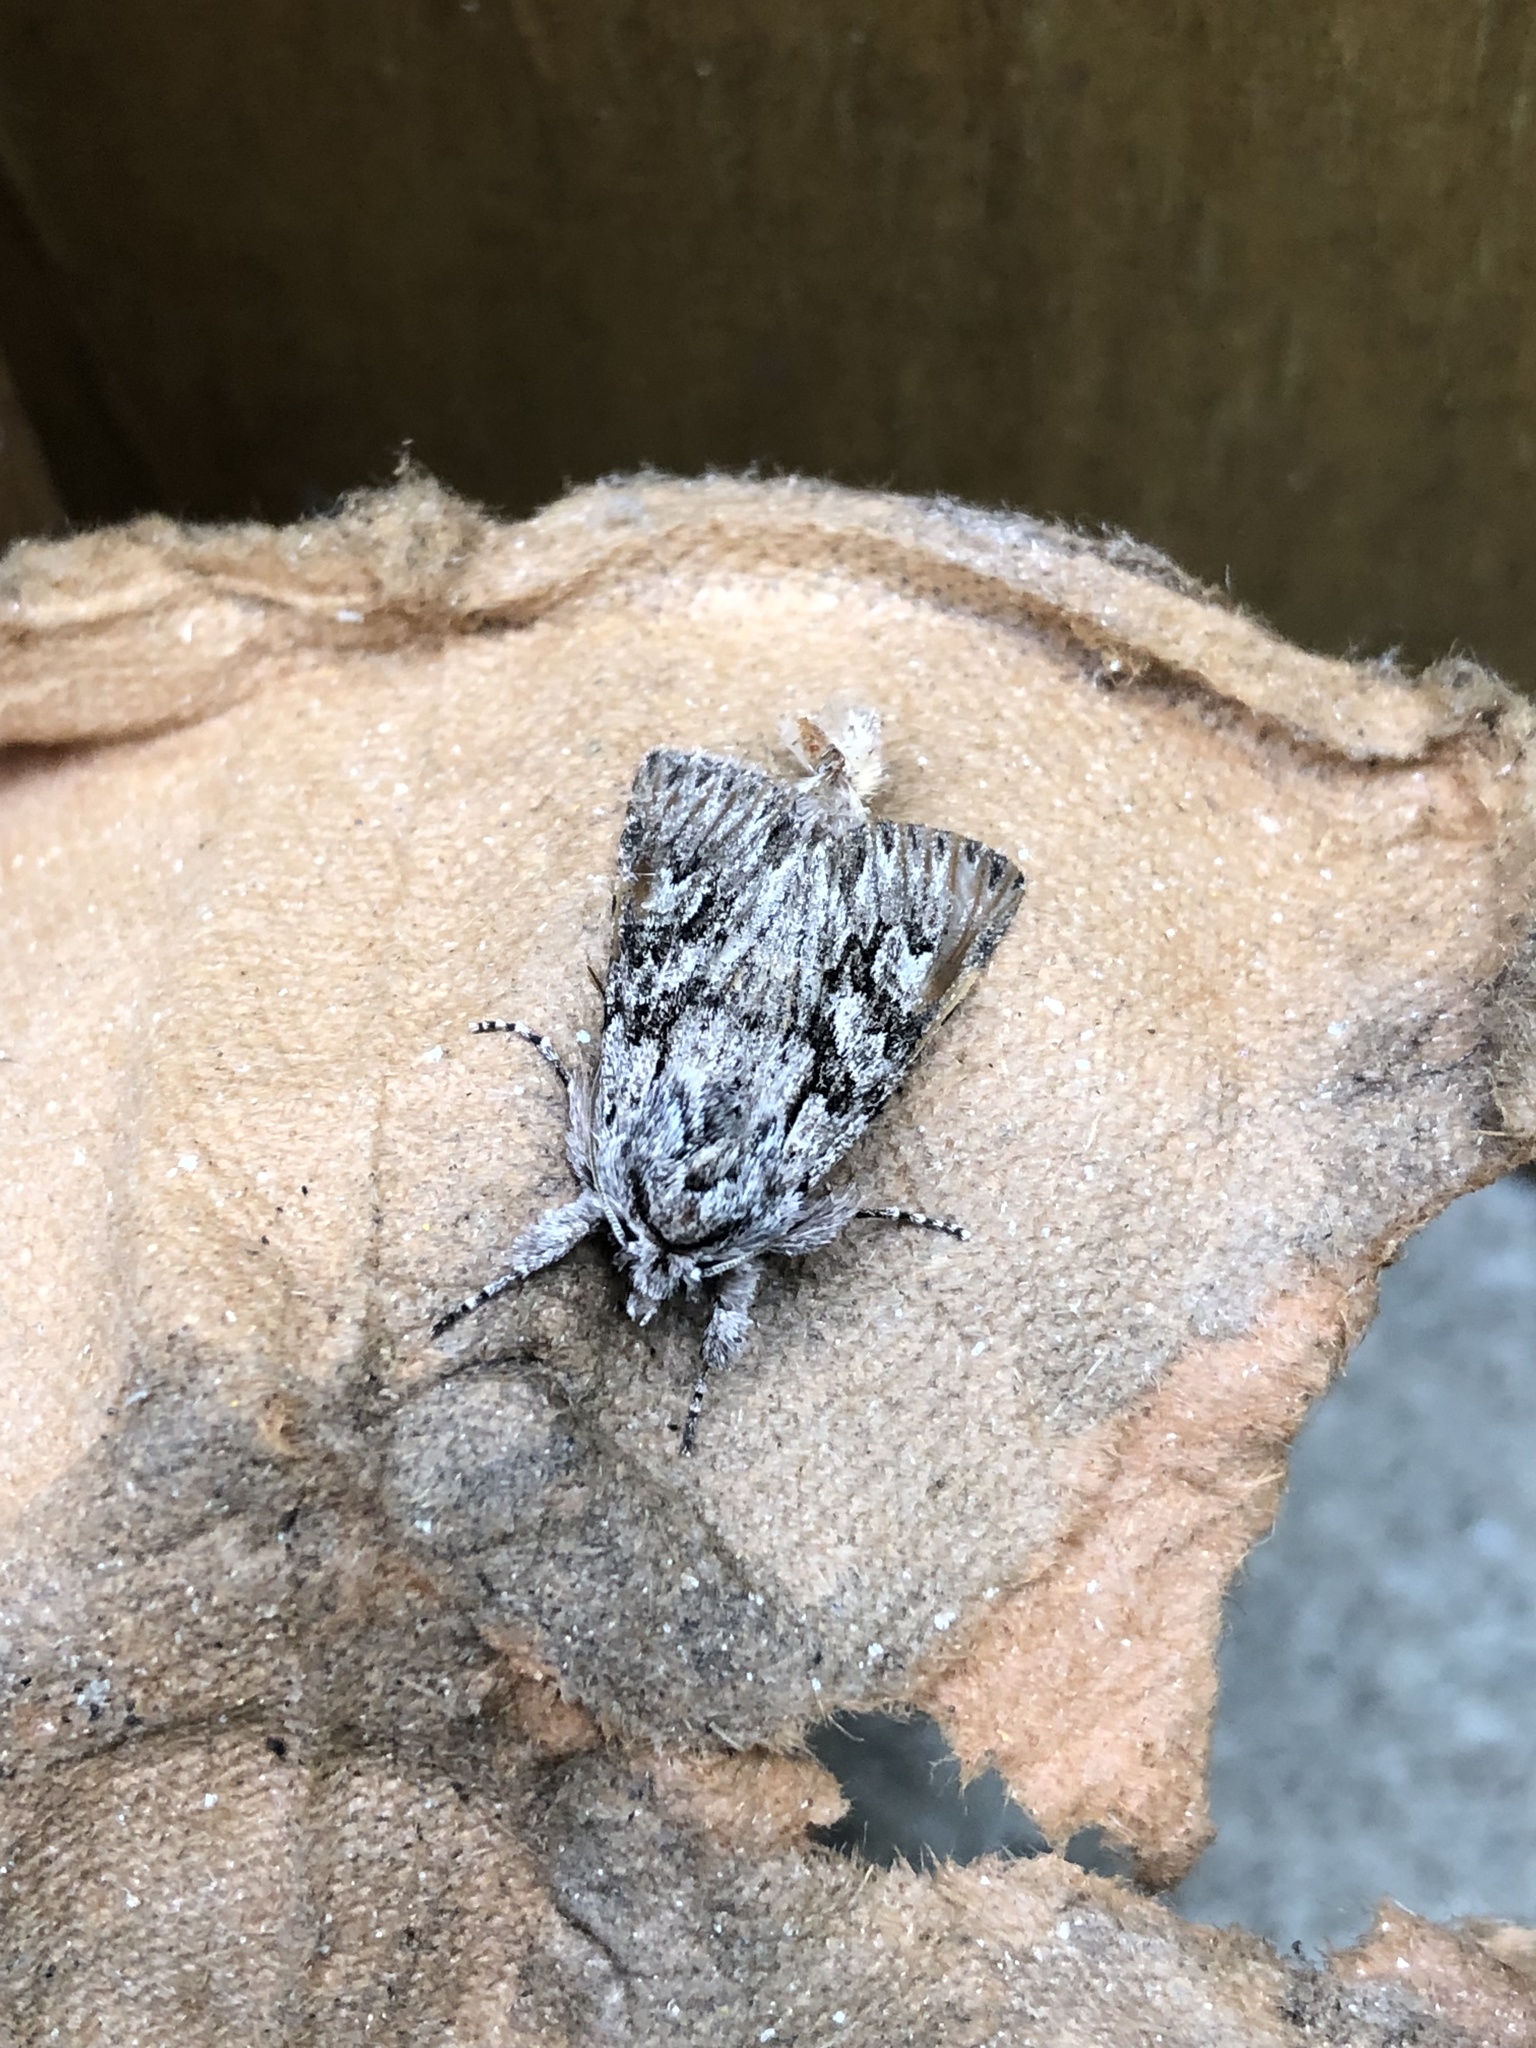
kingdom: Animalia
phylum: Arthropoda
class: Insecta
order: Lepidoptera
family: Noctuidae
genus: Xylocampa
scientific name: Xylocampa areola
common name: Early grey
